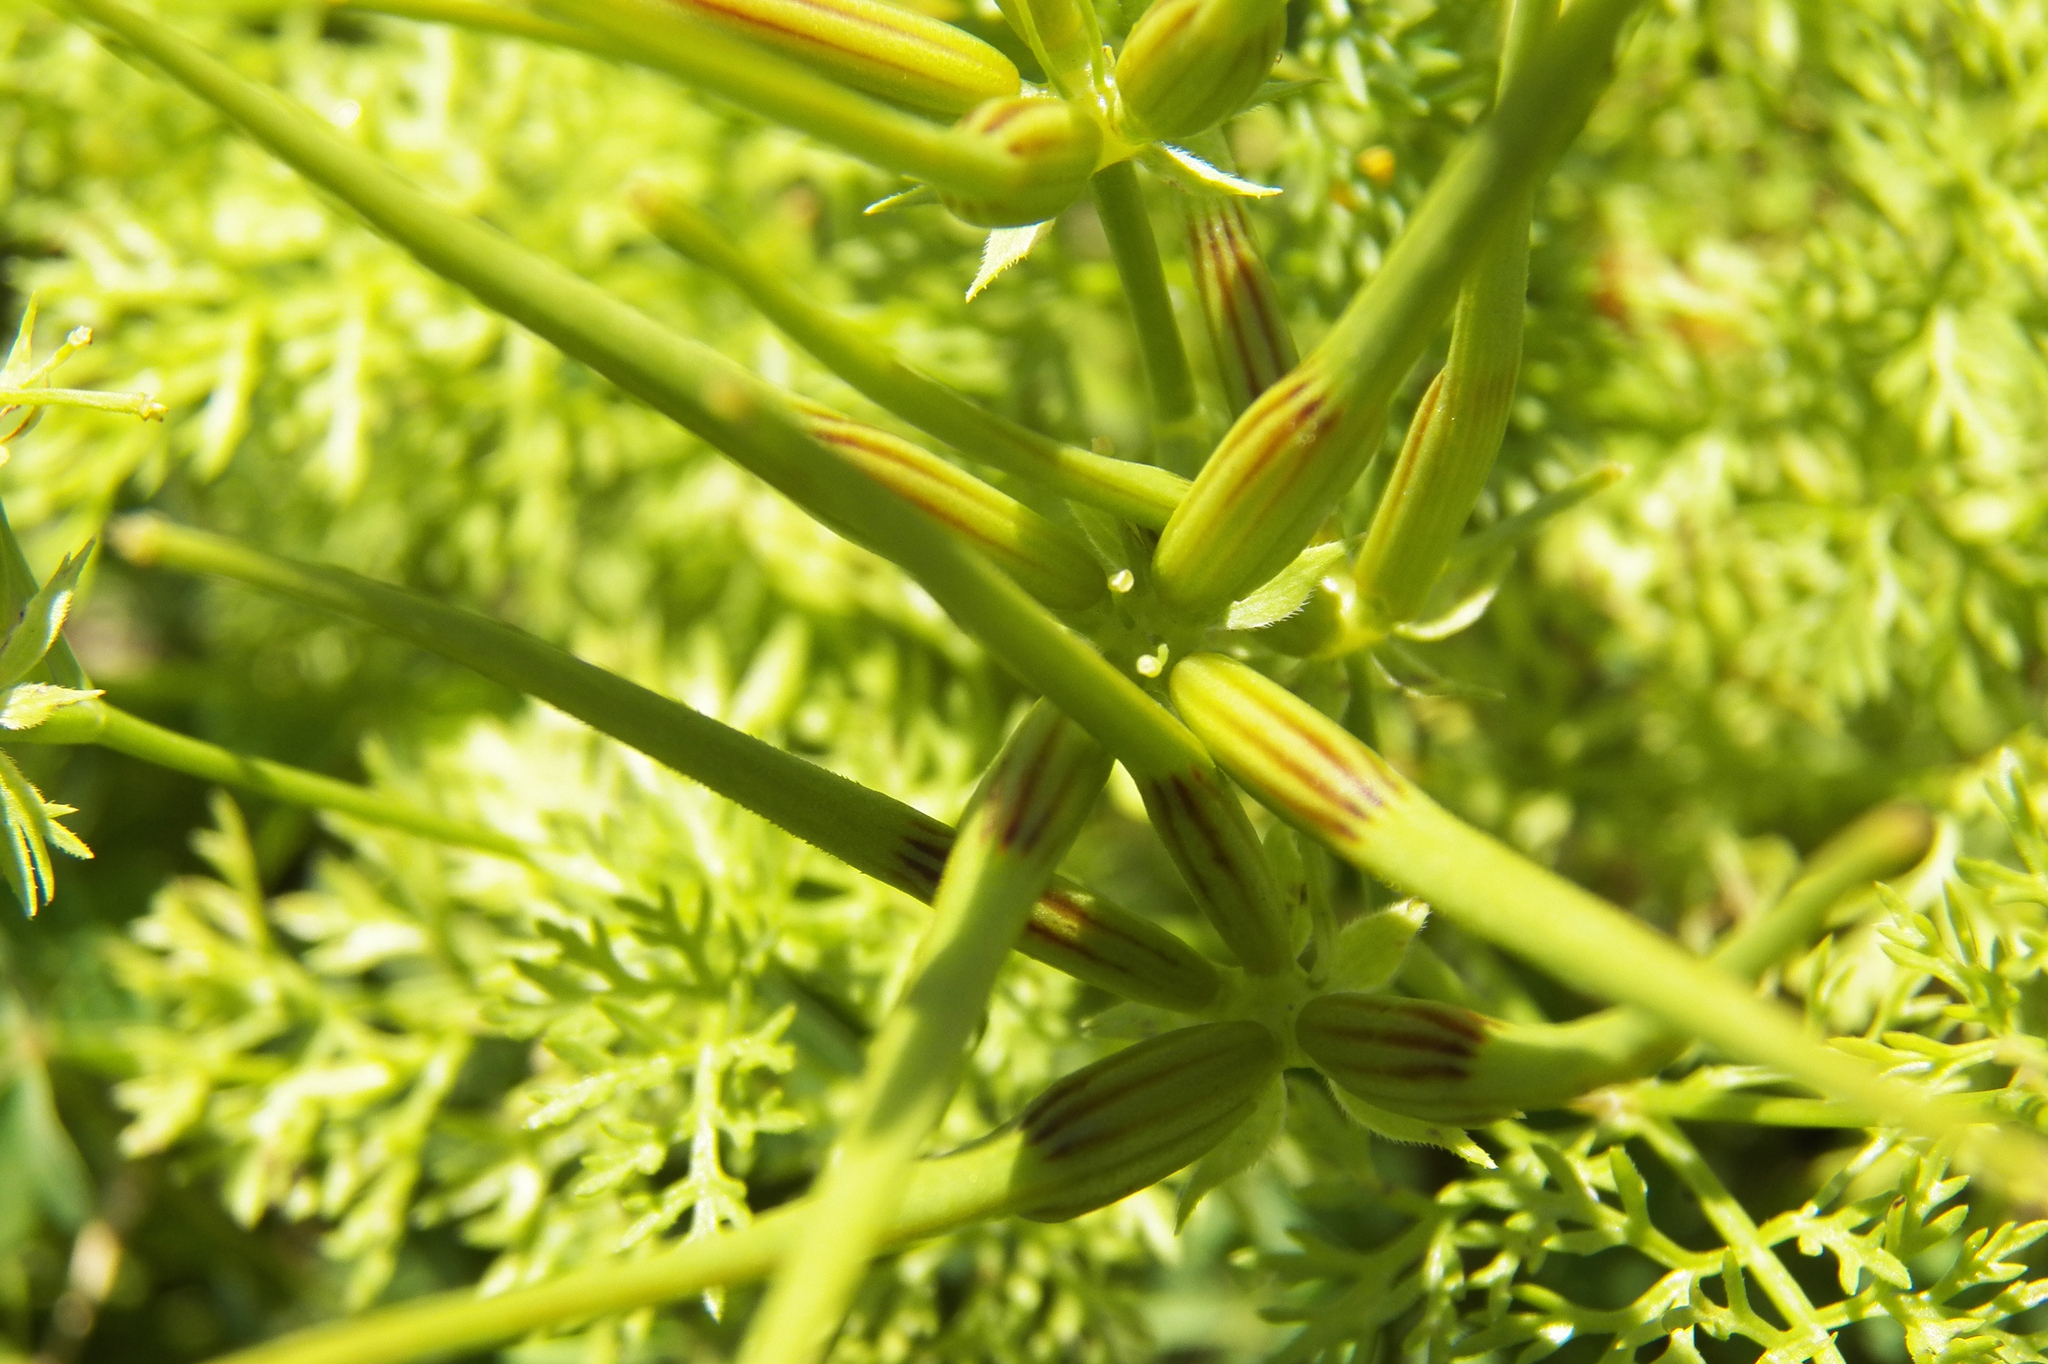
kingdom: Plantae
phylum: Tracheophyta
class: Magnoliopsida
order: Apiales
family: Apiaceae
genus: Scandix
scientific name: Scandix pecten-veneris
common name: Shepherd's-needle
